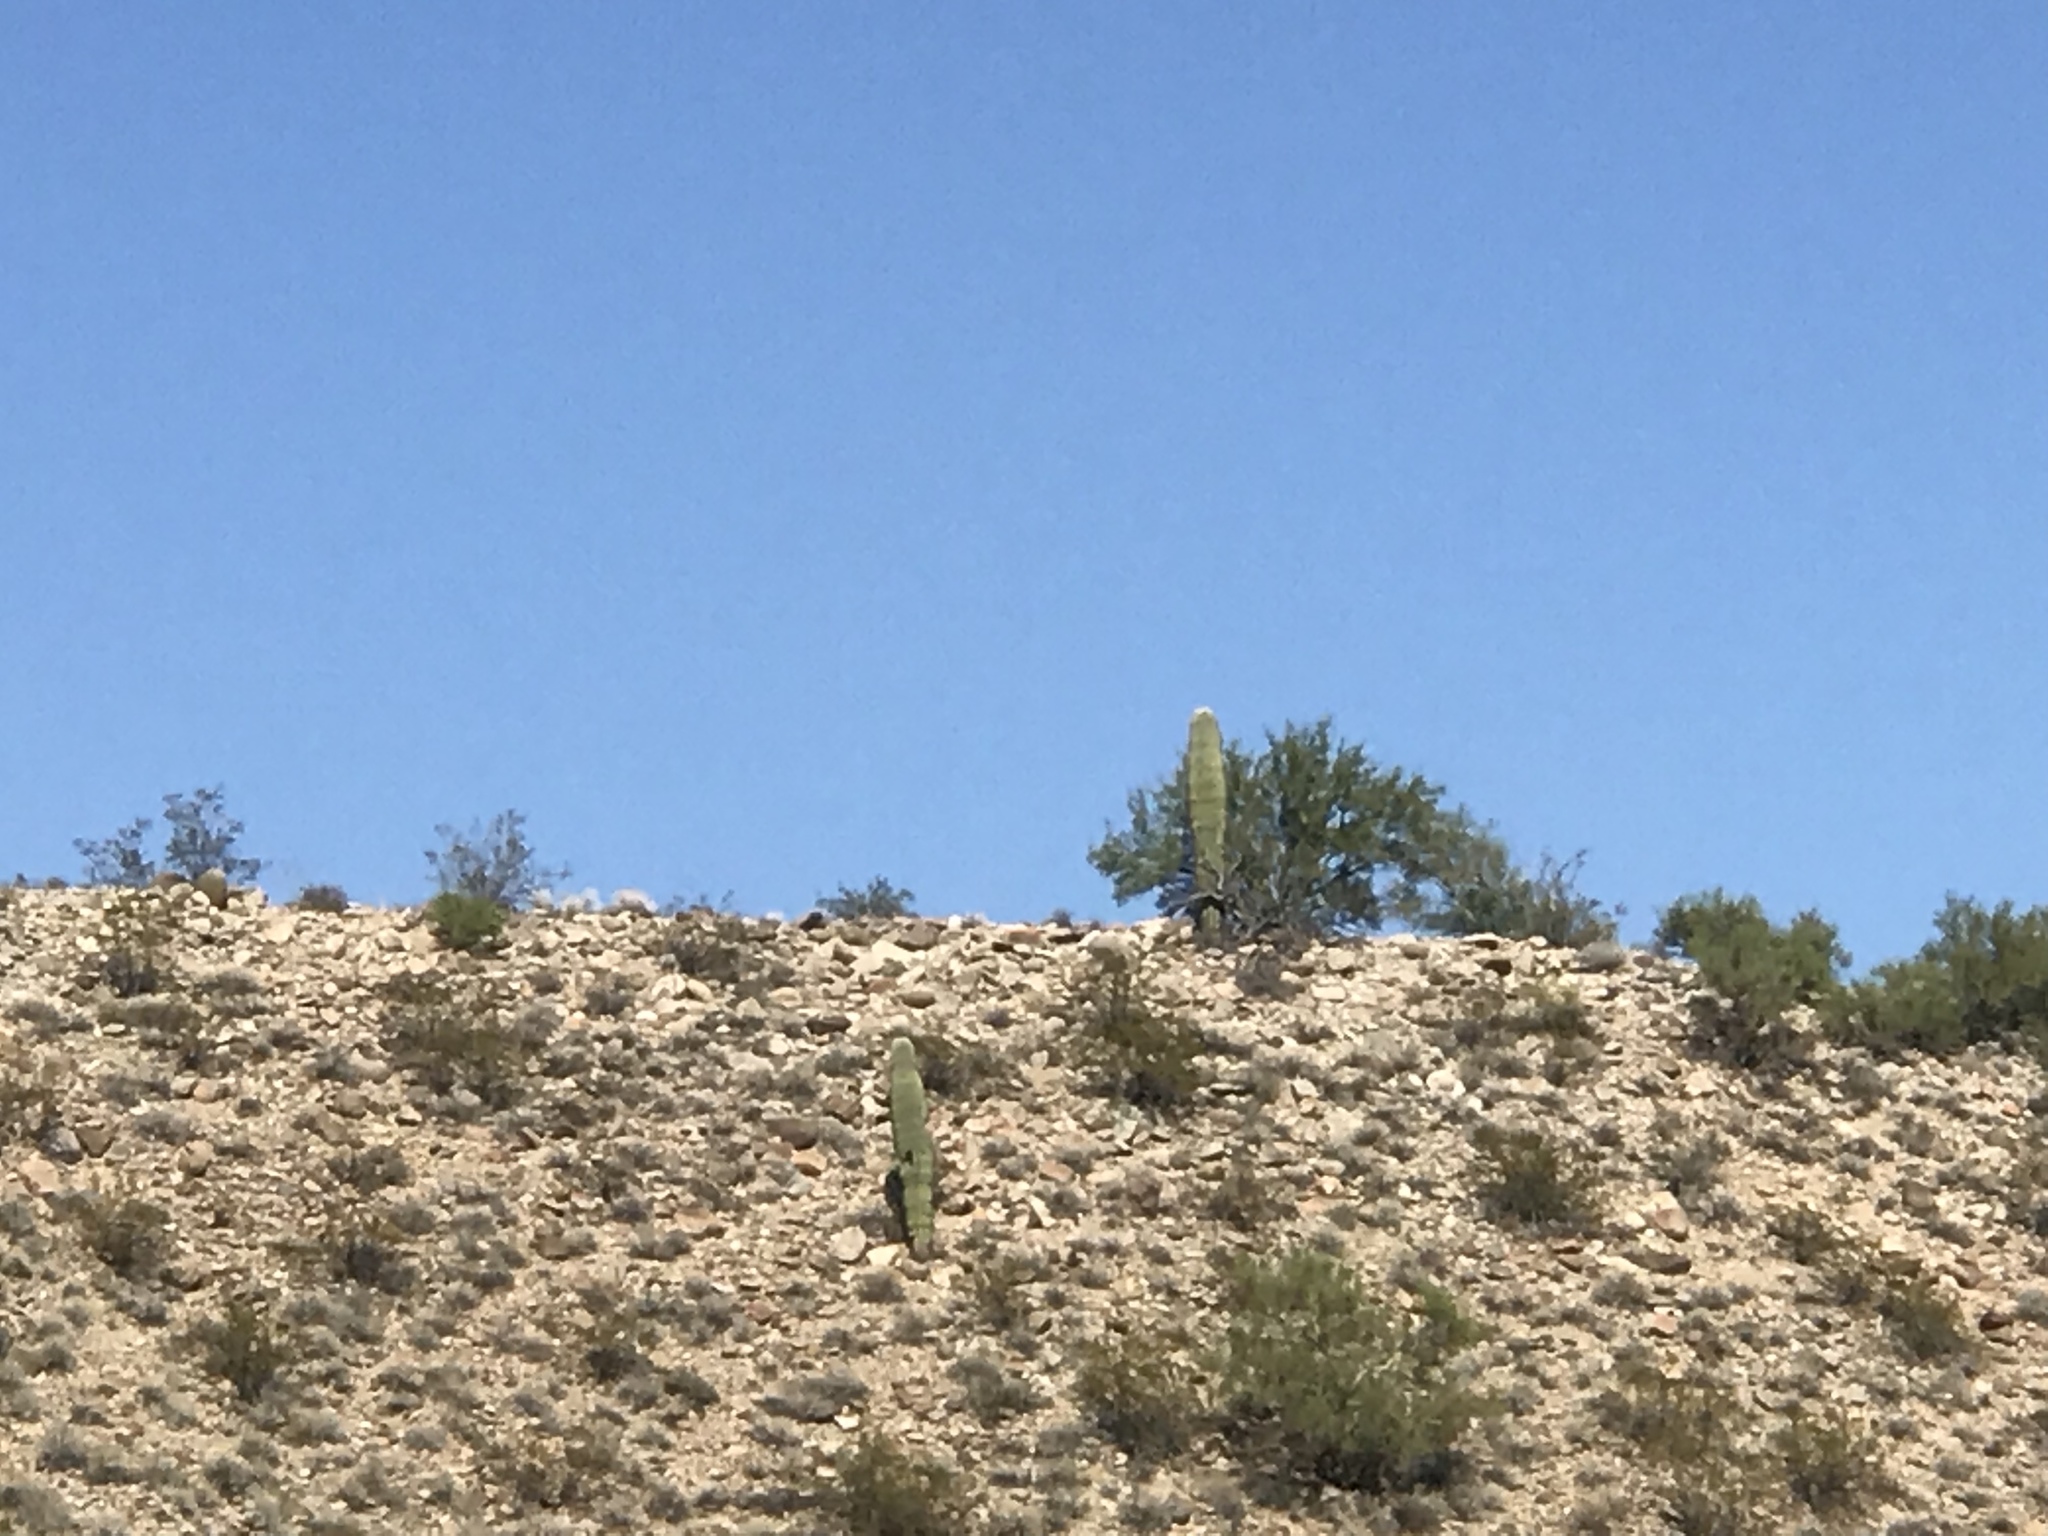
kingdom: Plantae
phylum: Tracheophyta
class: Magnoliopsida
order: Caryophyllales
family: Cactaceae
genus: Carnegiea
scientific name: Carnegiea gigantea
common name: Saguaro
